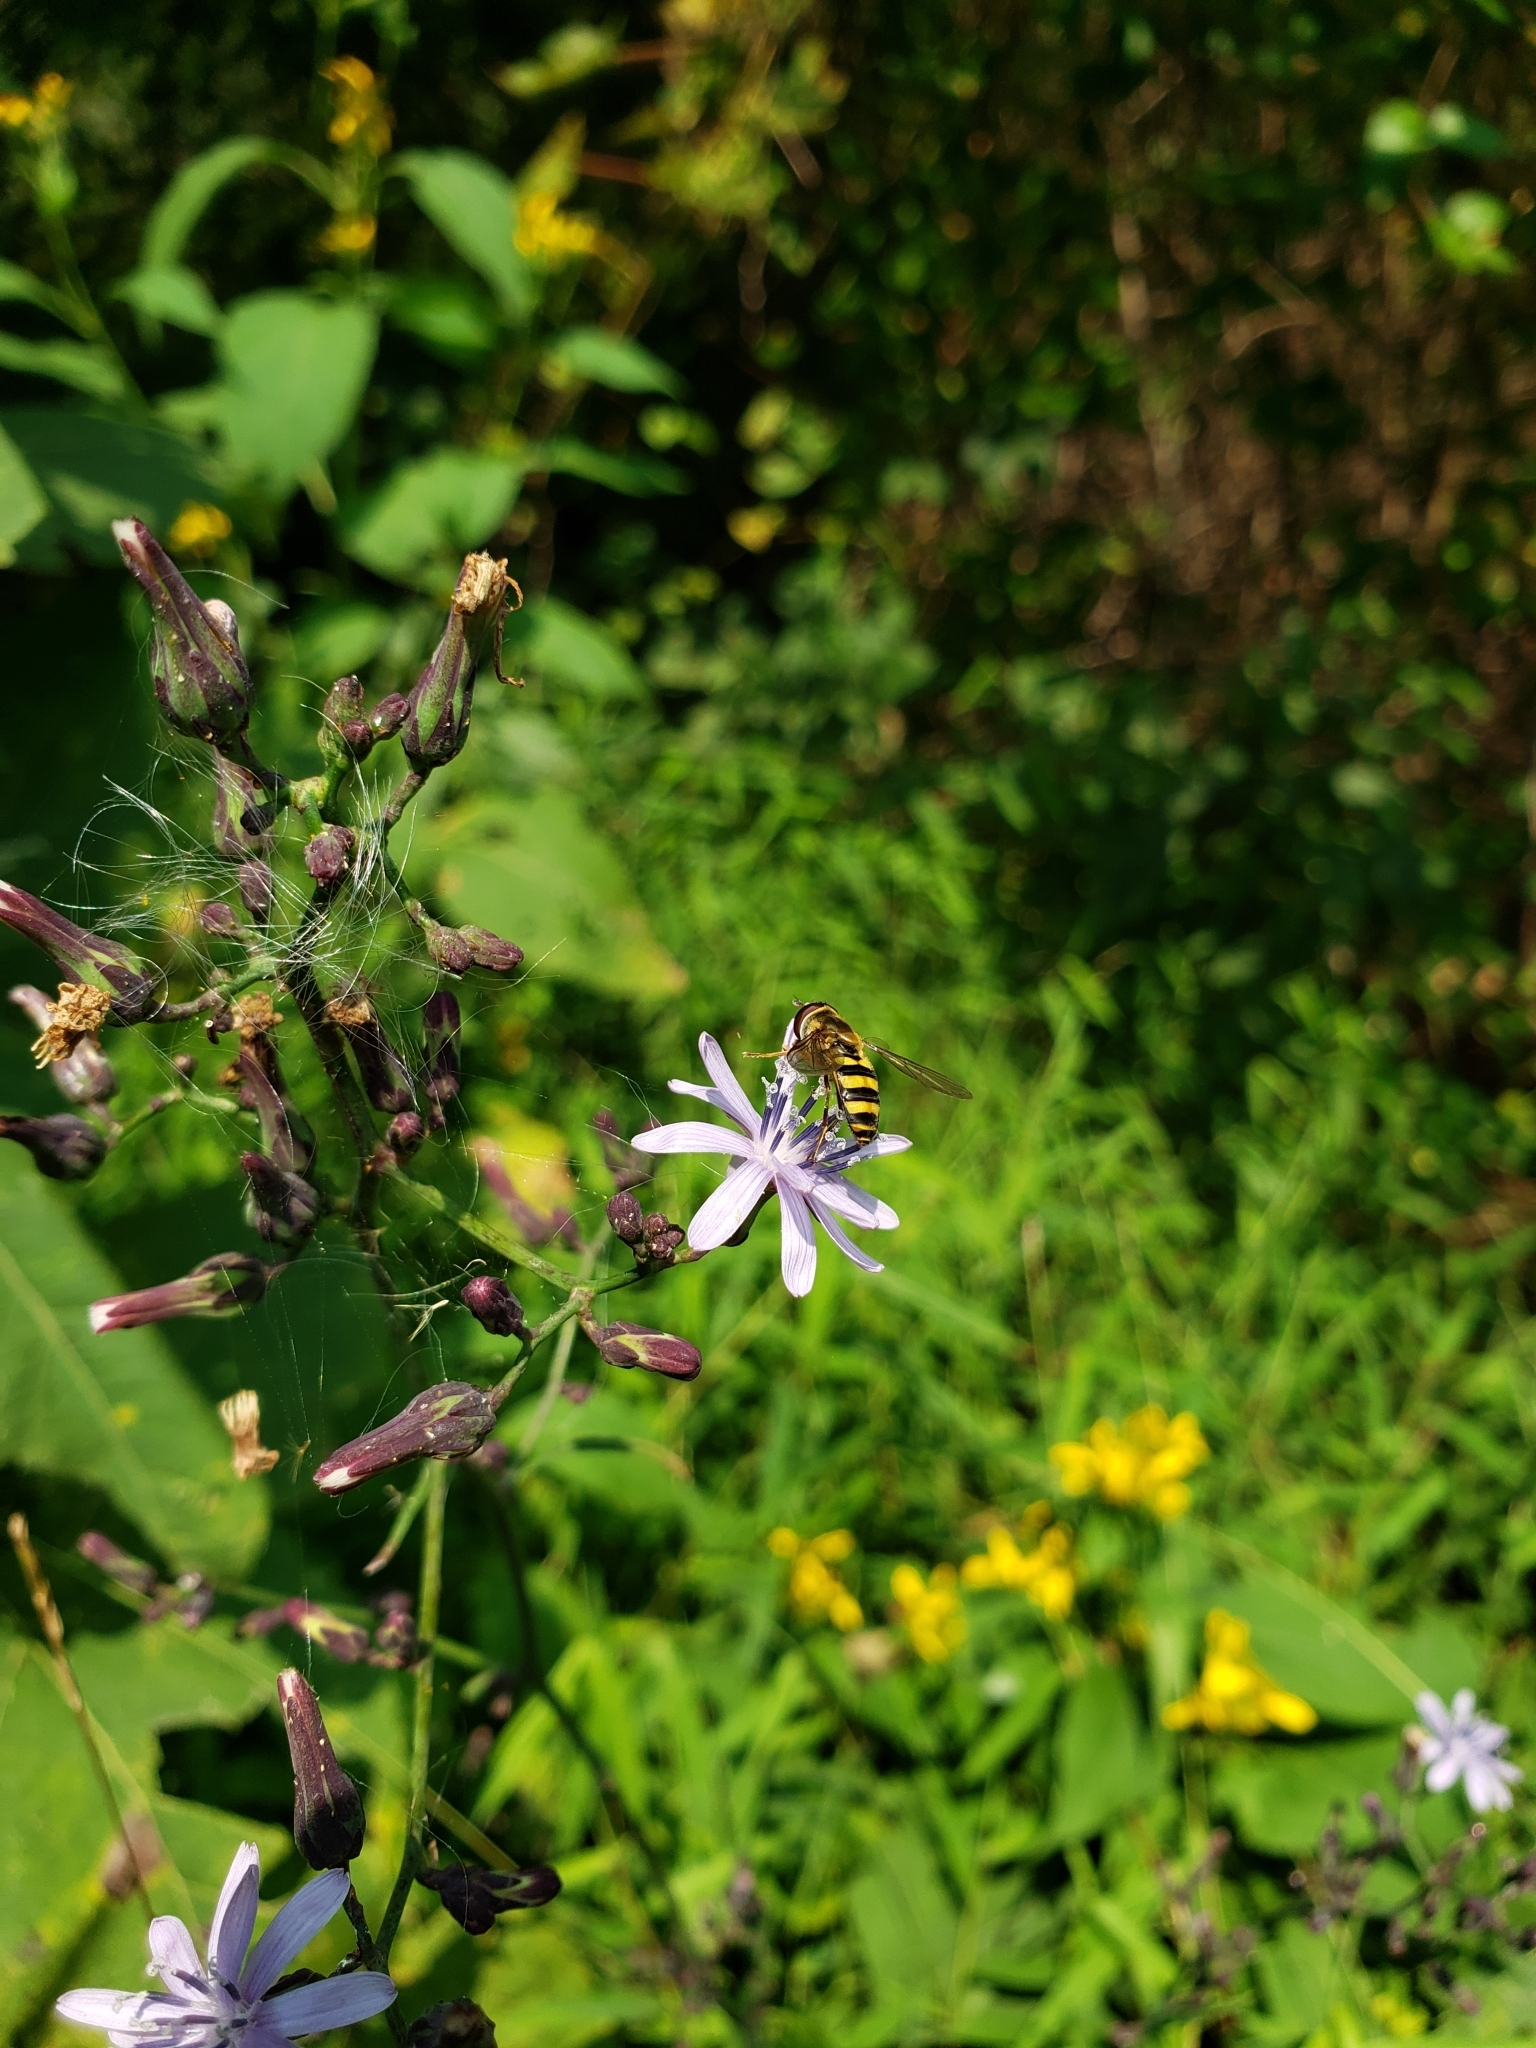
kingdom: Animalia
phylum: Arthropoda
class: Insecta
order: Diptera
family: Syrphidae
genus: Eupeodes
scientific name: Eupeodes
